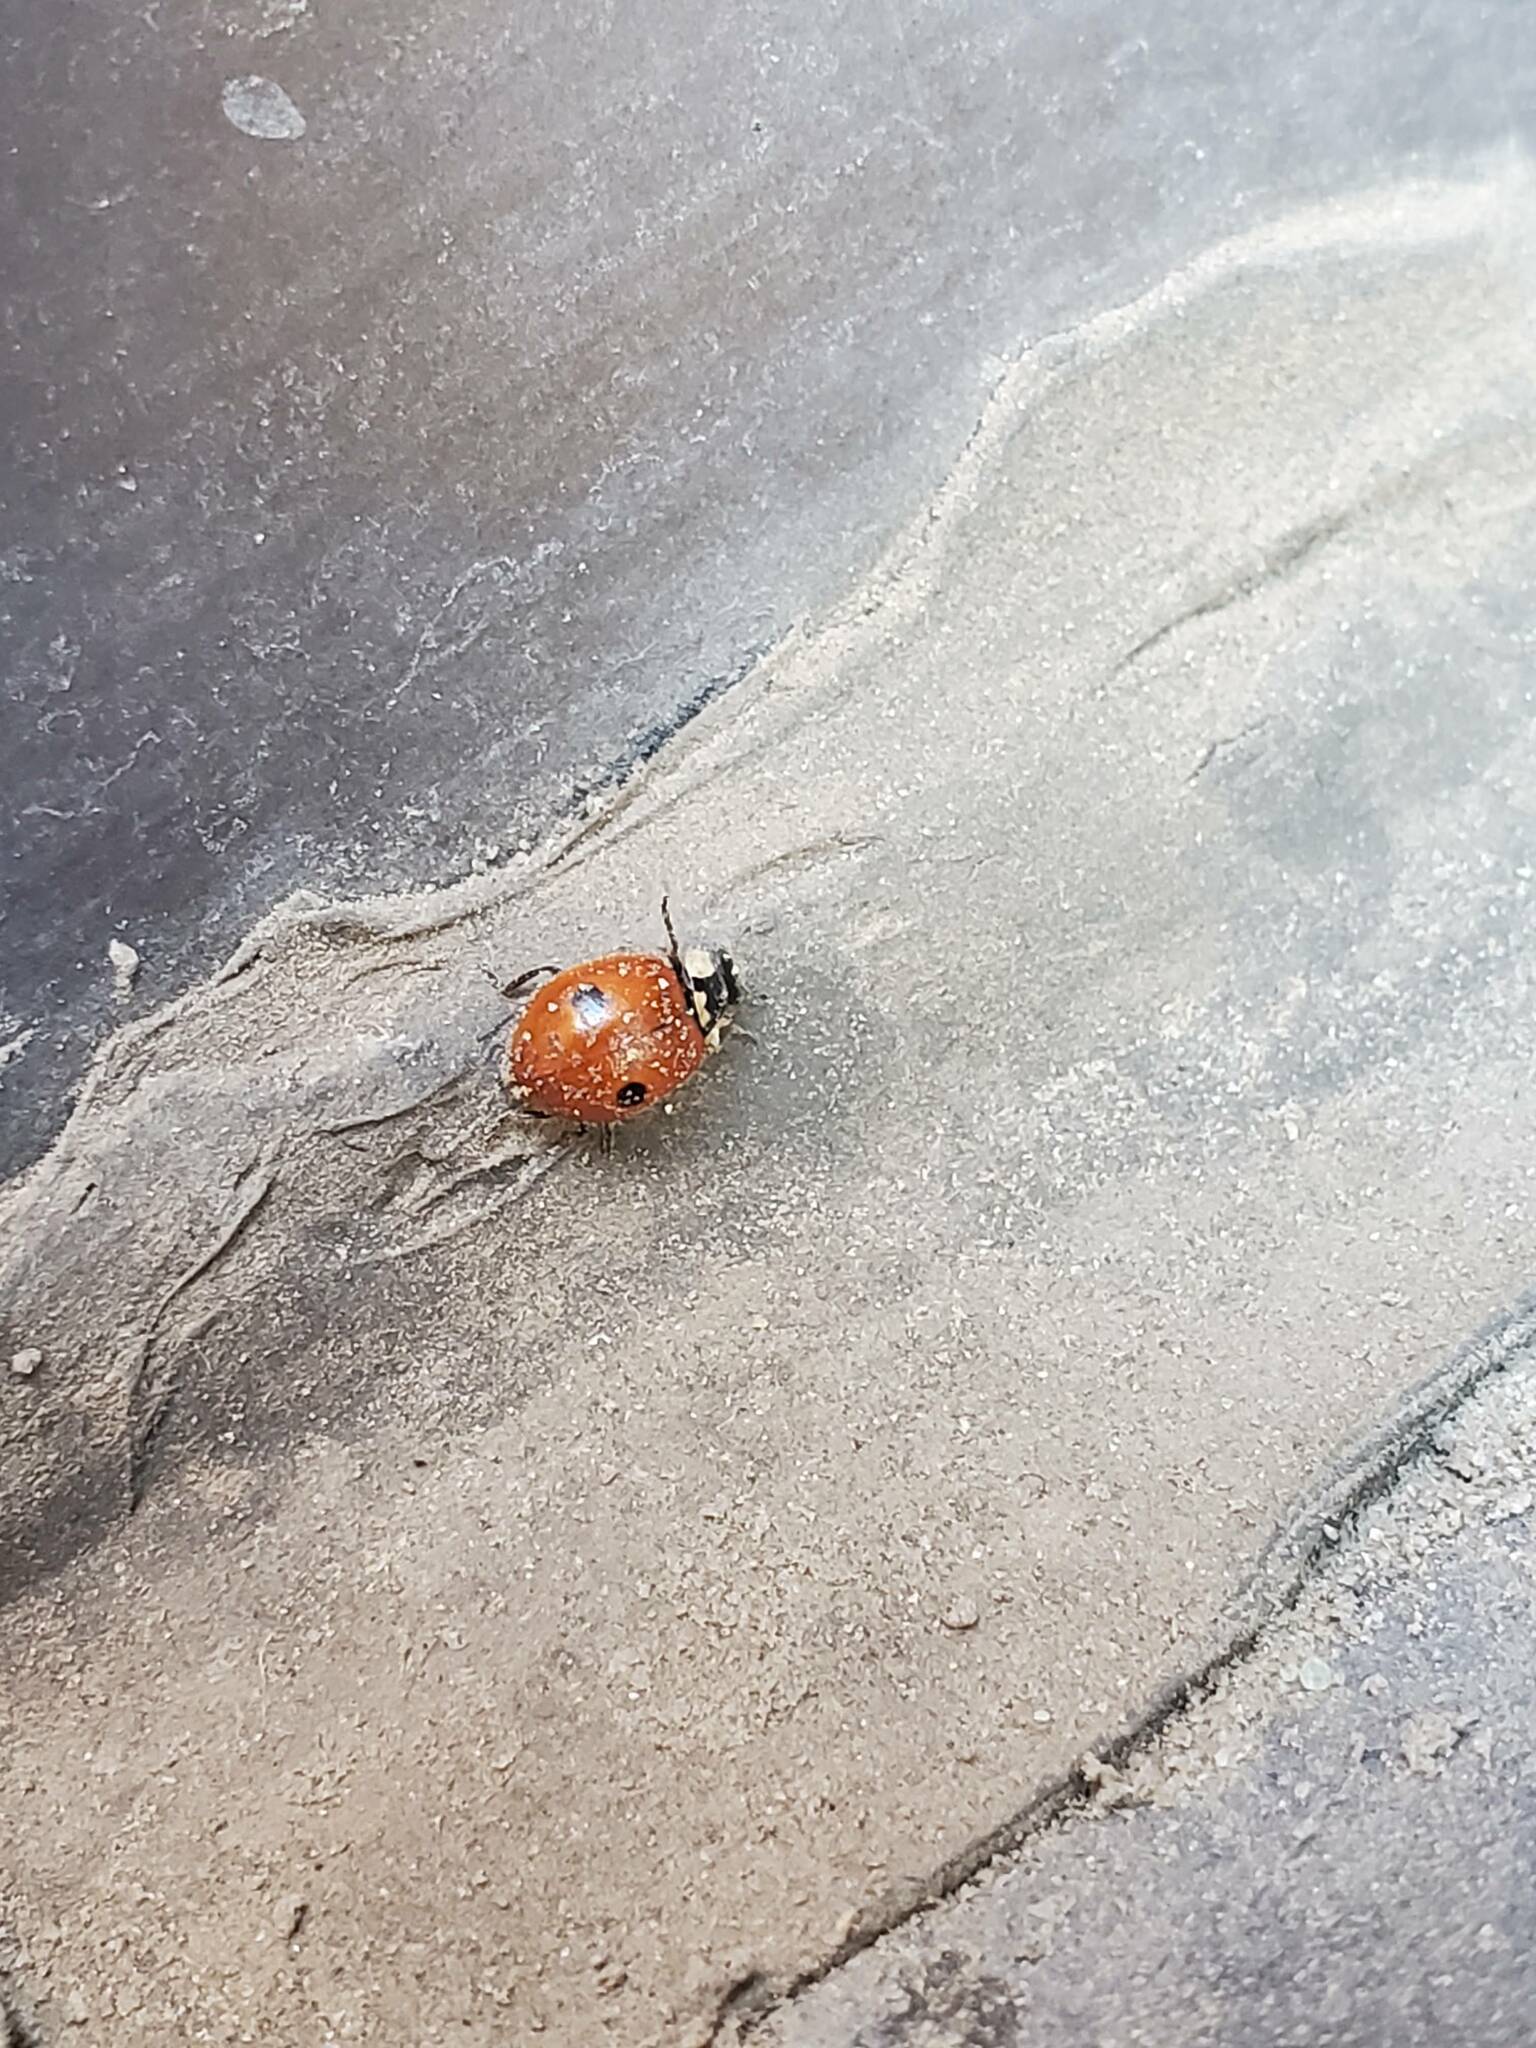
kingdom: Animalia
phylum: Arthropoda
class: Insecta
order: Coleoptera
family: Coccinellidae
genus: Adalia
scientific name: Adalia bipunctata
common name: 2-spot ladybird
